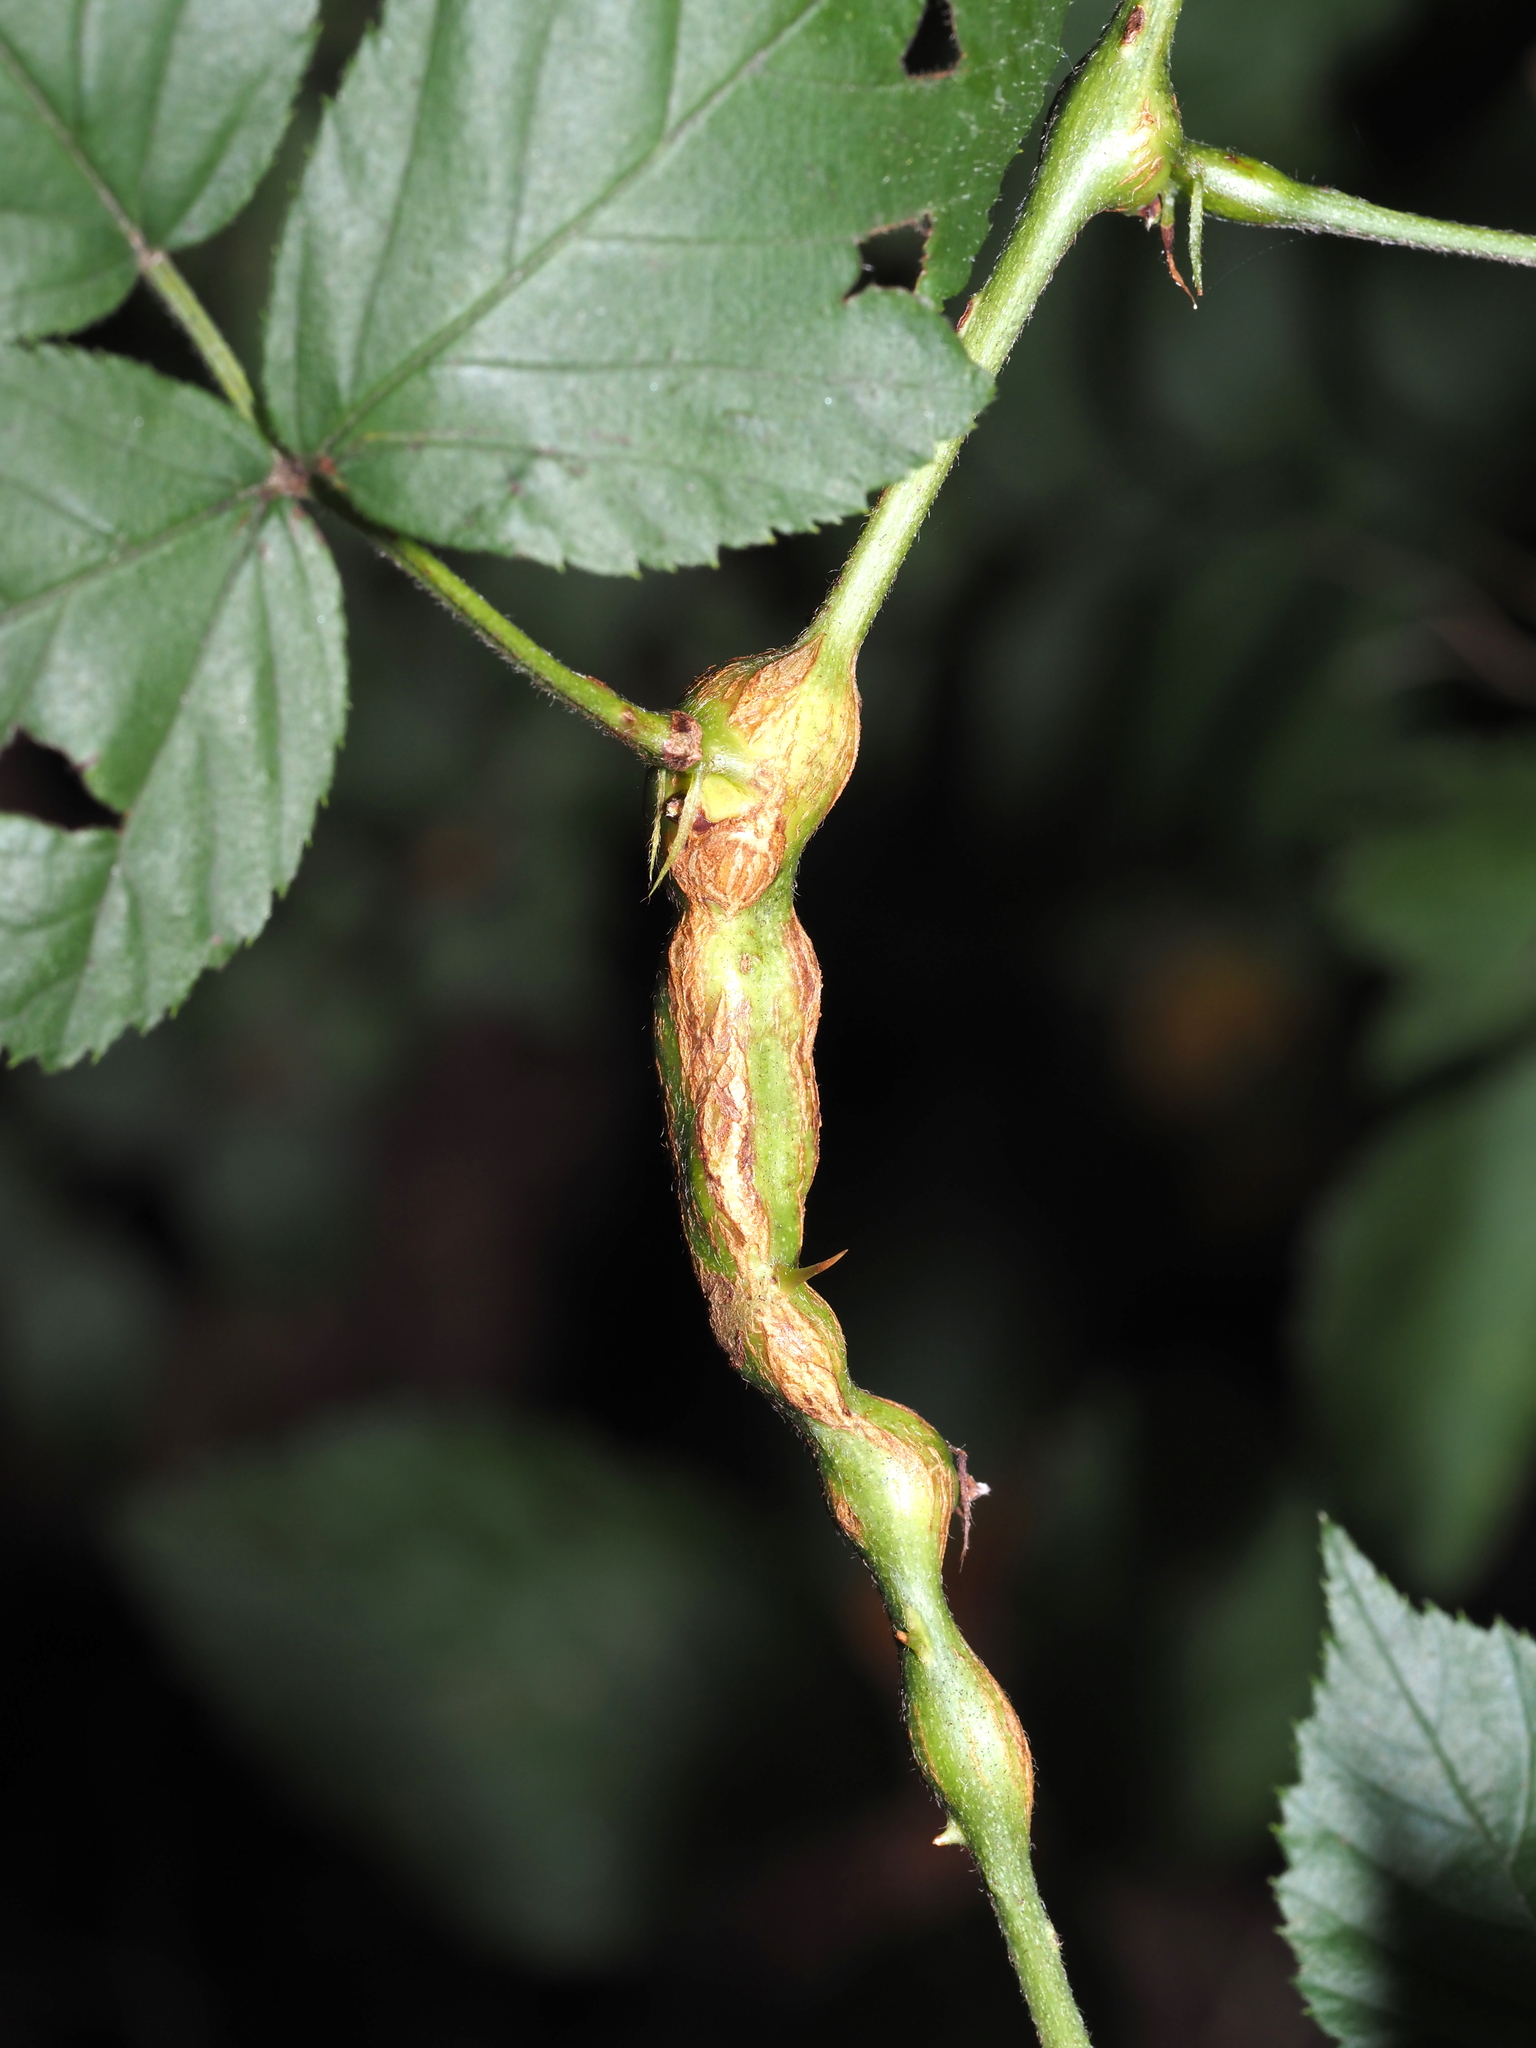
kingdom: Animalia
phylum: Arthropoda
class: Insecta
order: Diptera
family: Cecidomyiidae
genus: Neolasioptera
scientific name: Neolasioptera nodulosa
